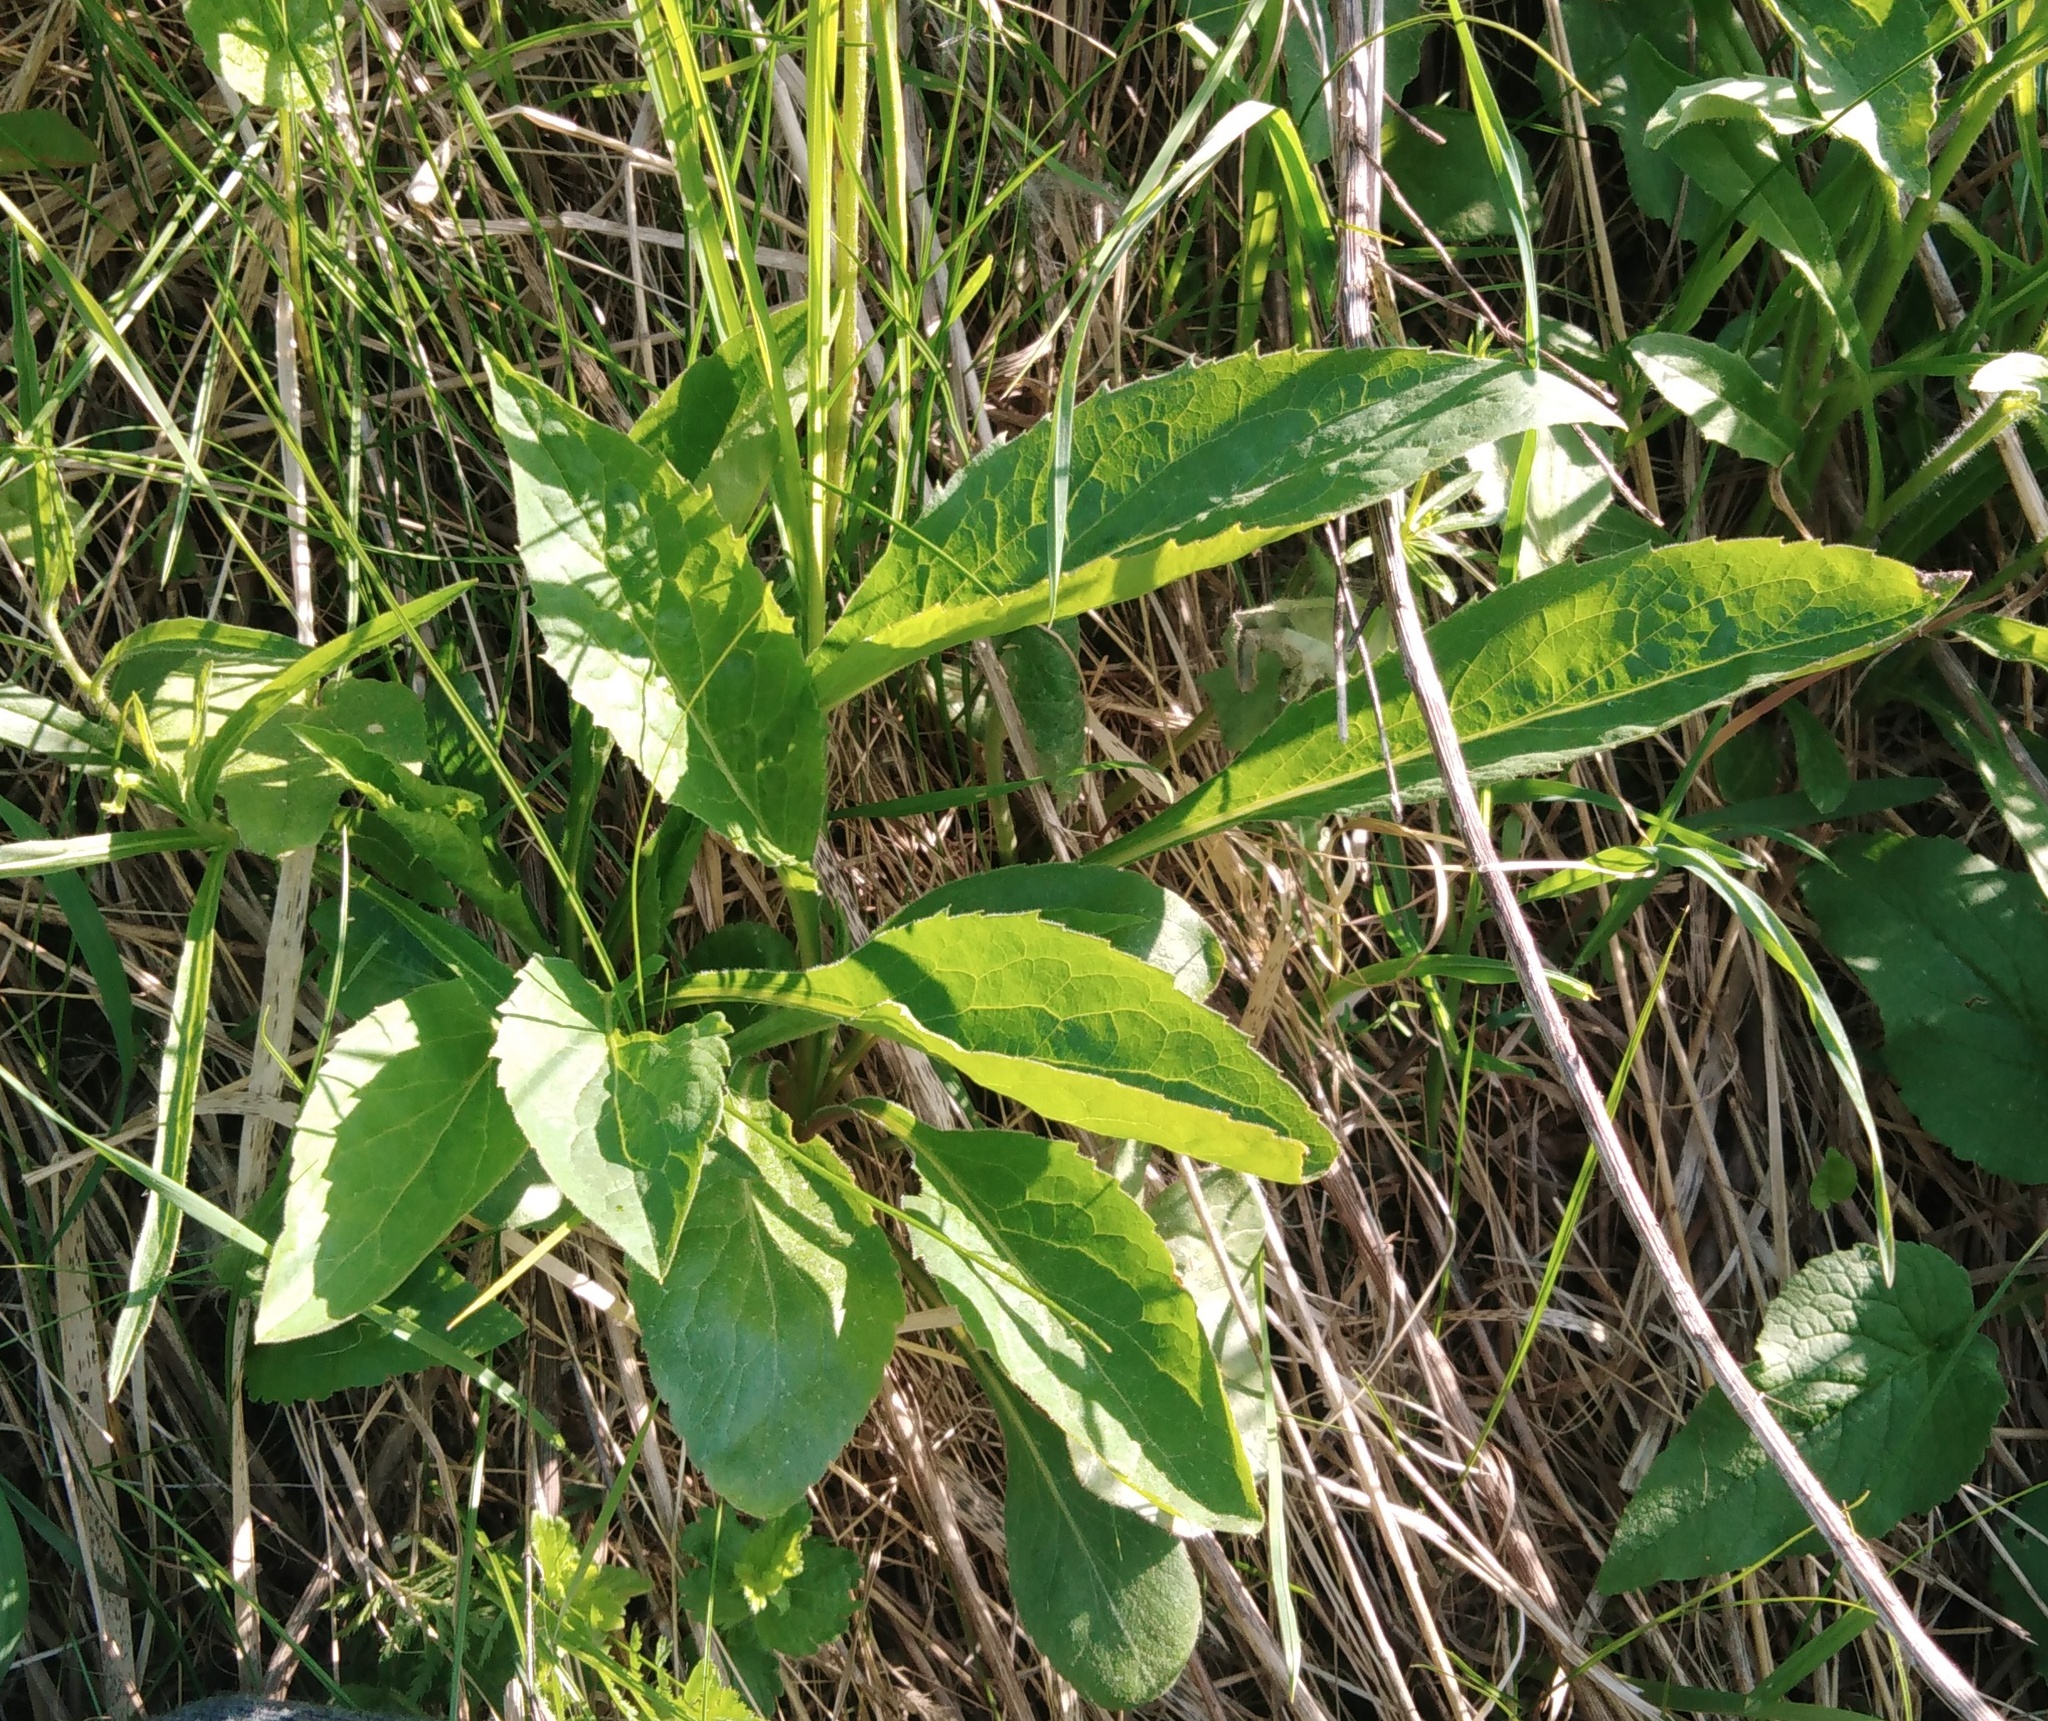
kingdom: Plantae
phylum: Tracheophyta
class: Magnoliopsida
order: Asterales
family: Asteraceae
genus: Solidago
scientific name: Solidago virgaurea
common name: Goldenrod
